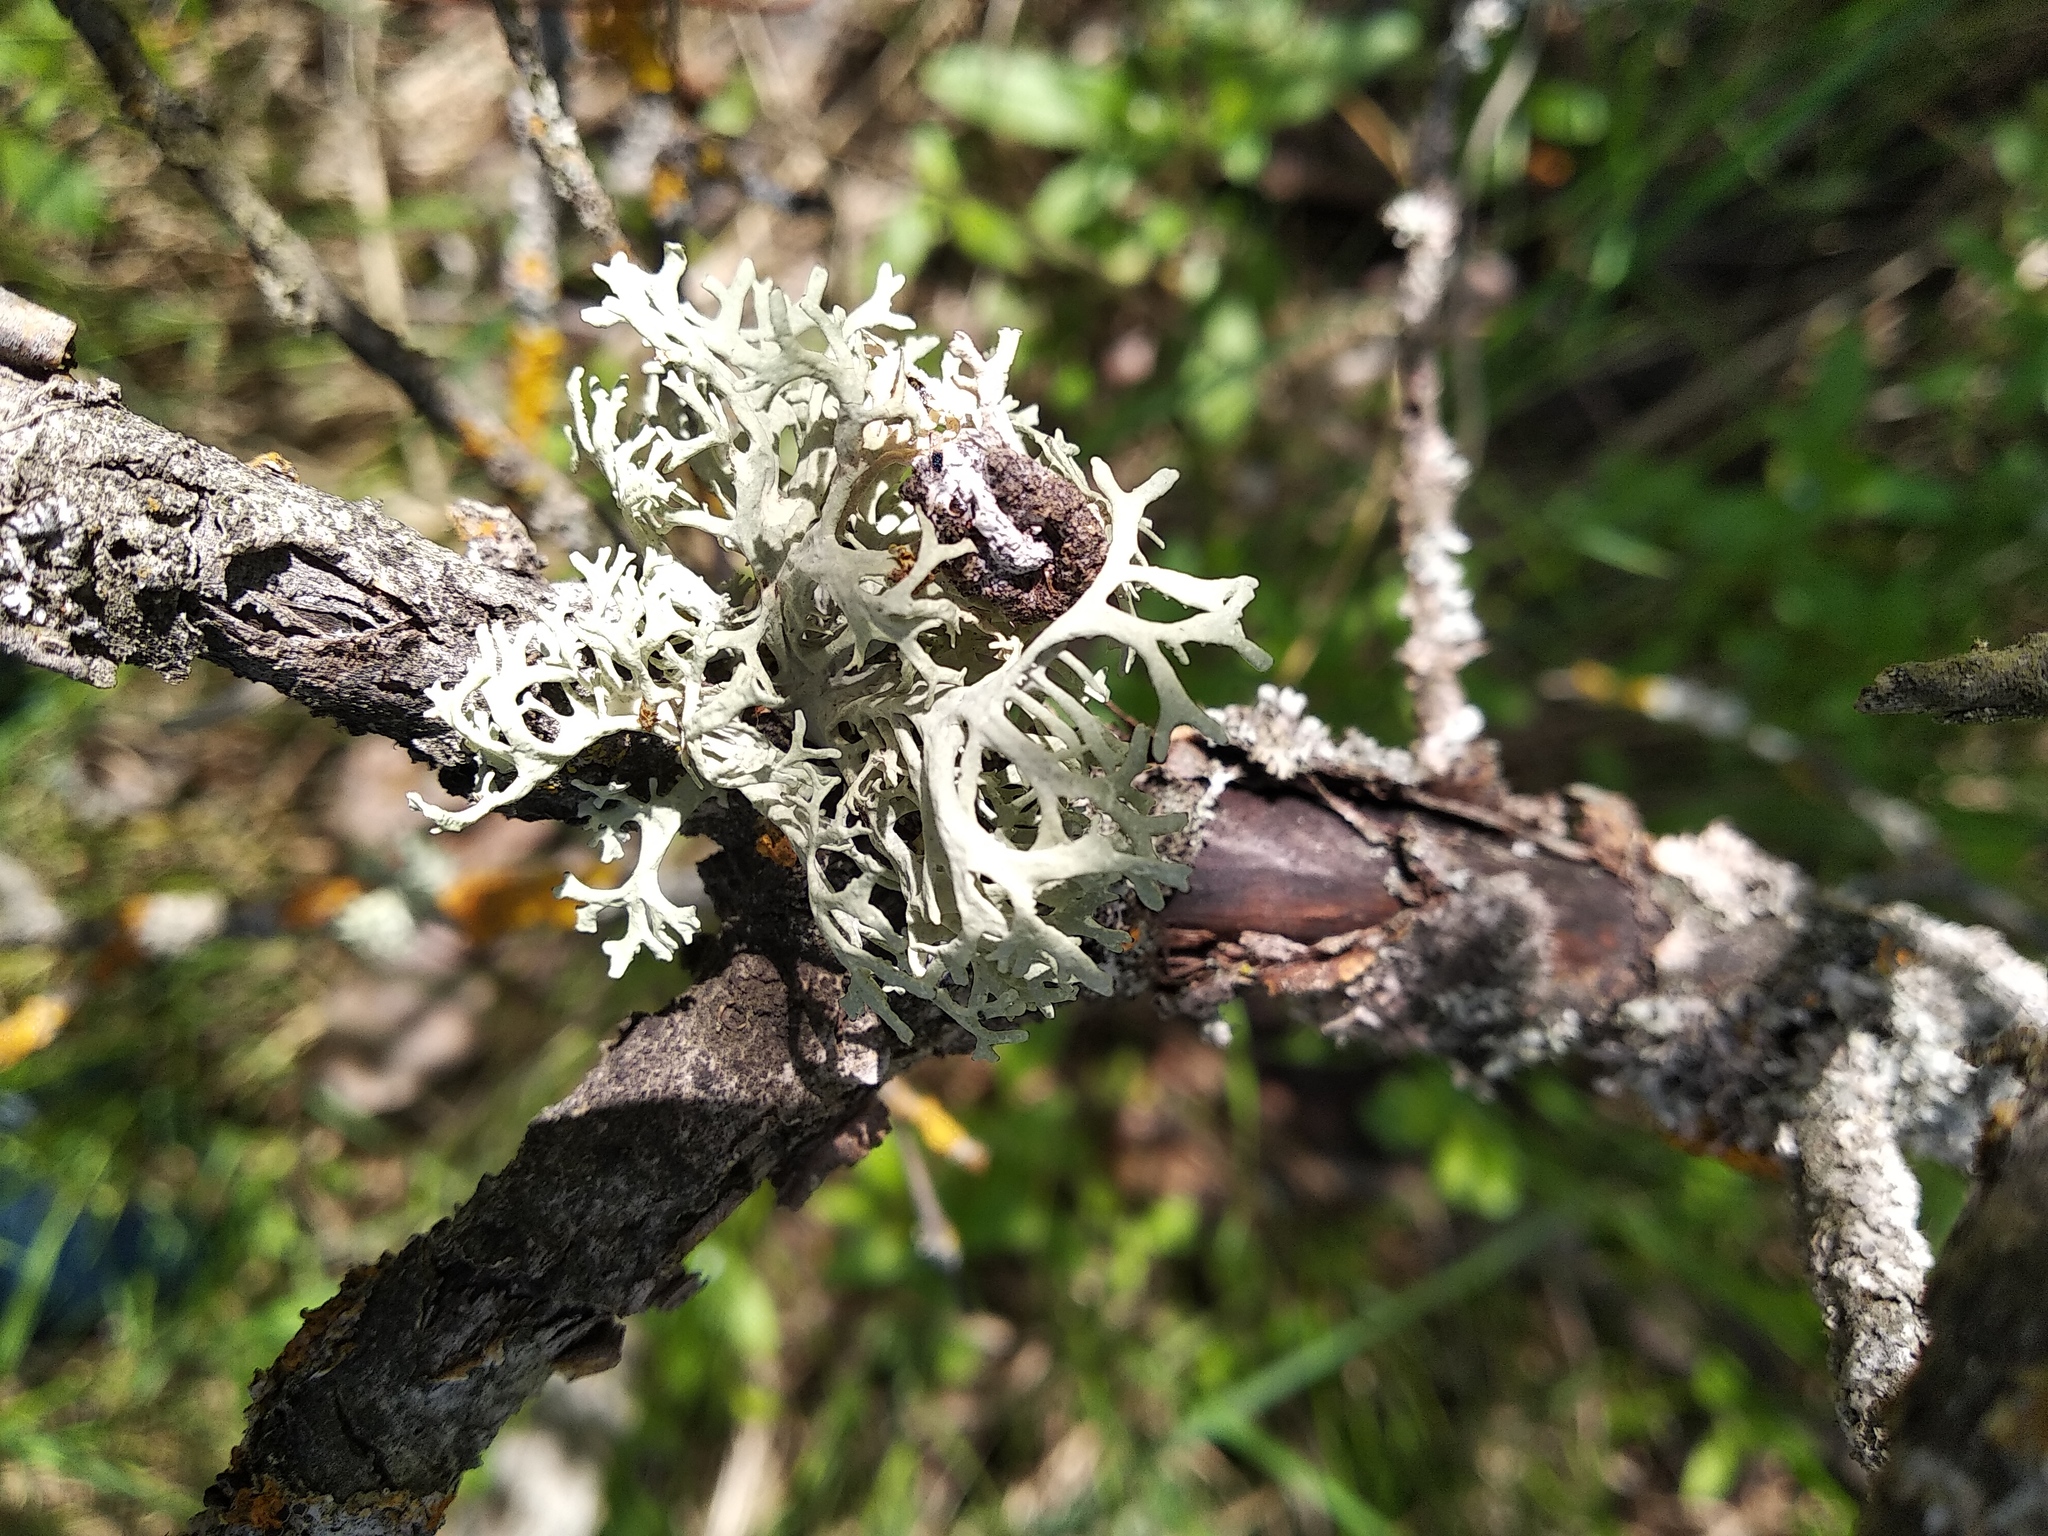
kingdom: Fungi
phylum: Ascomycota
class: Lecanoromycetes
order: Lecanorales
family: Parmeliaceae
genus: Evernia
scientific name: Evernia prunastri
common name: Oak moss
